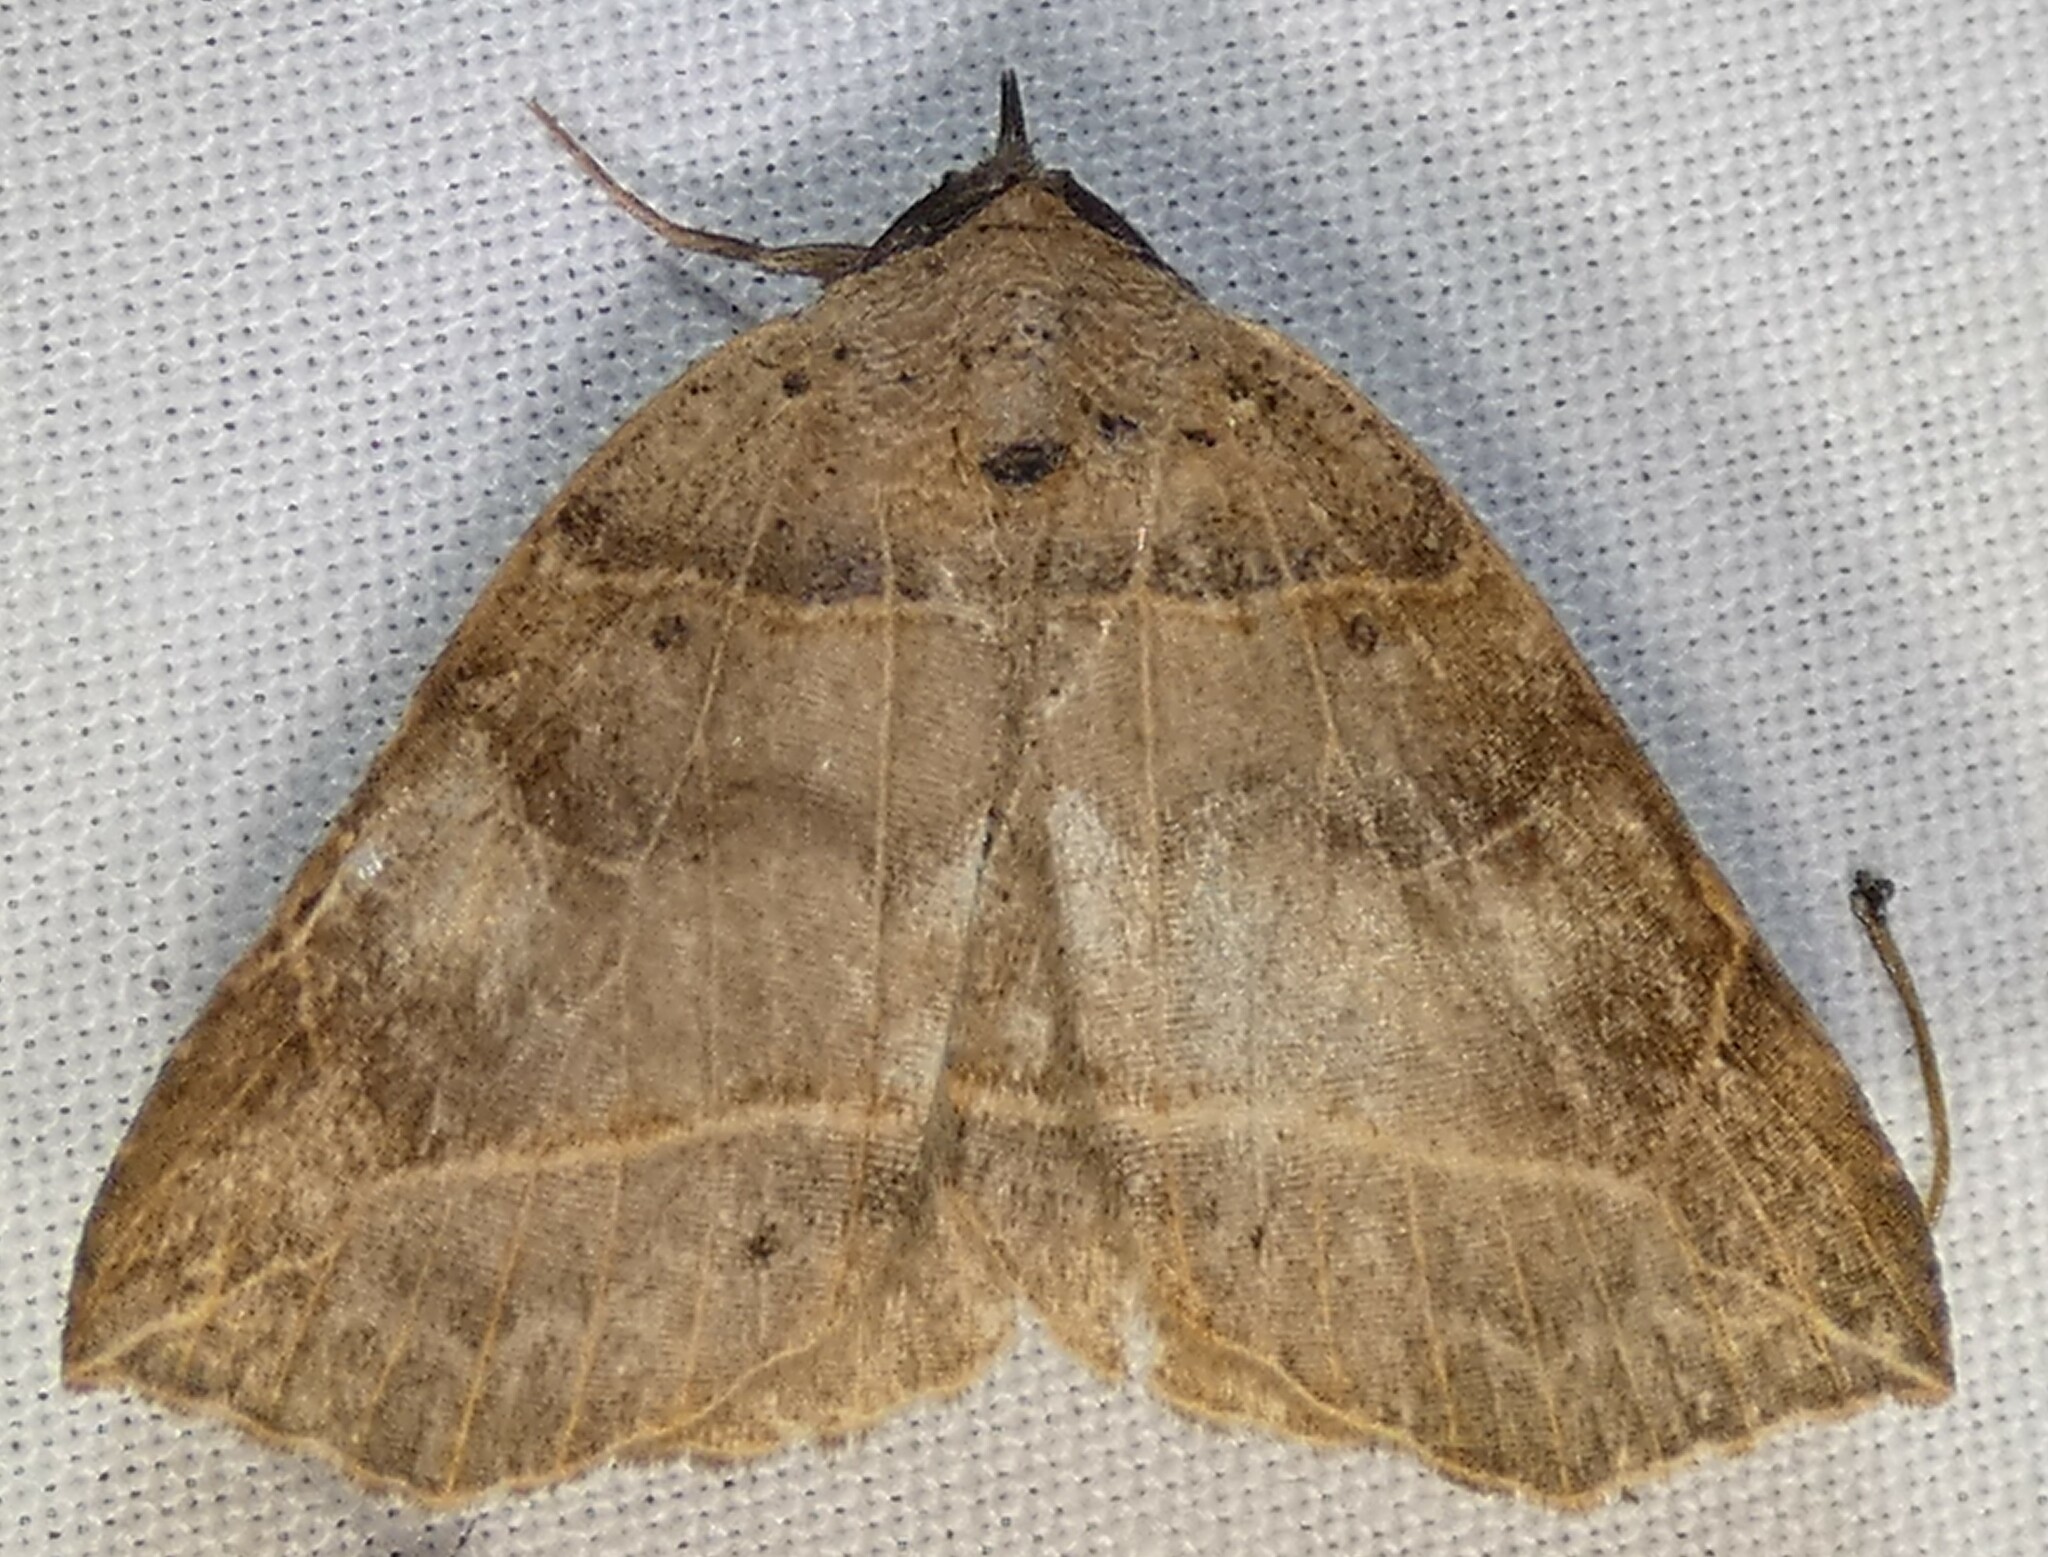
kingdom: Animalia
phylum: Arthropoda
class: Insecta
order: Lepidoptera
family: Erebidae
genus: Isogona
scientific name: Isogona tenuis
